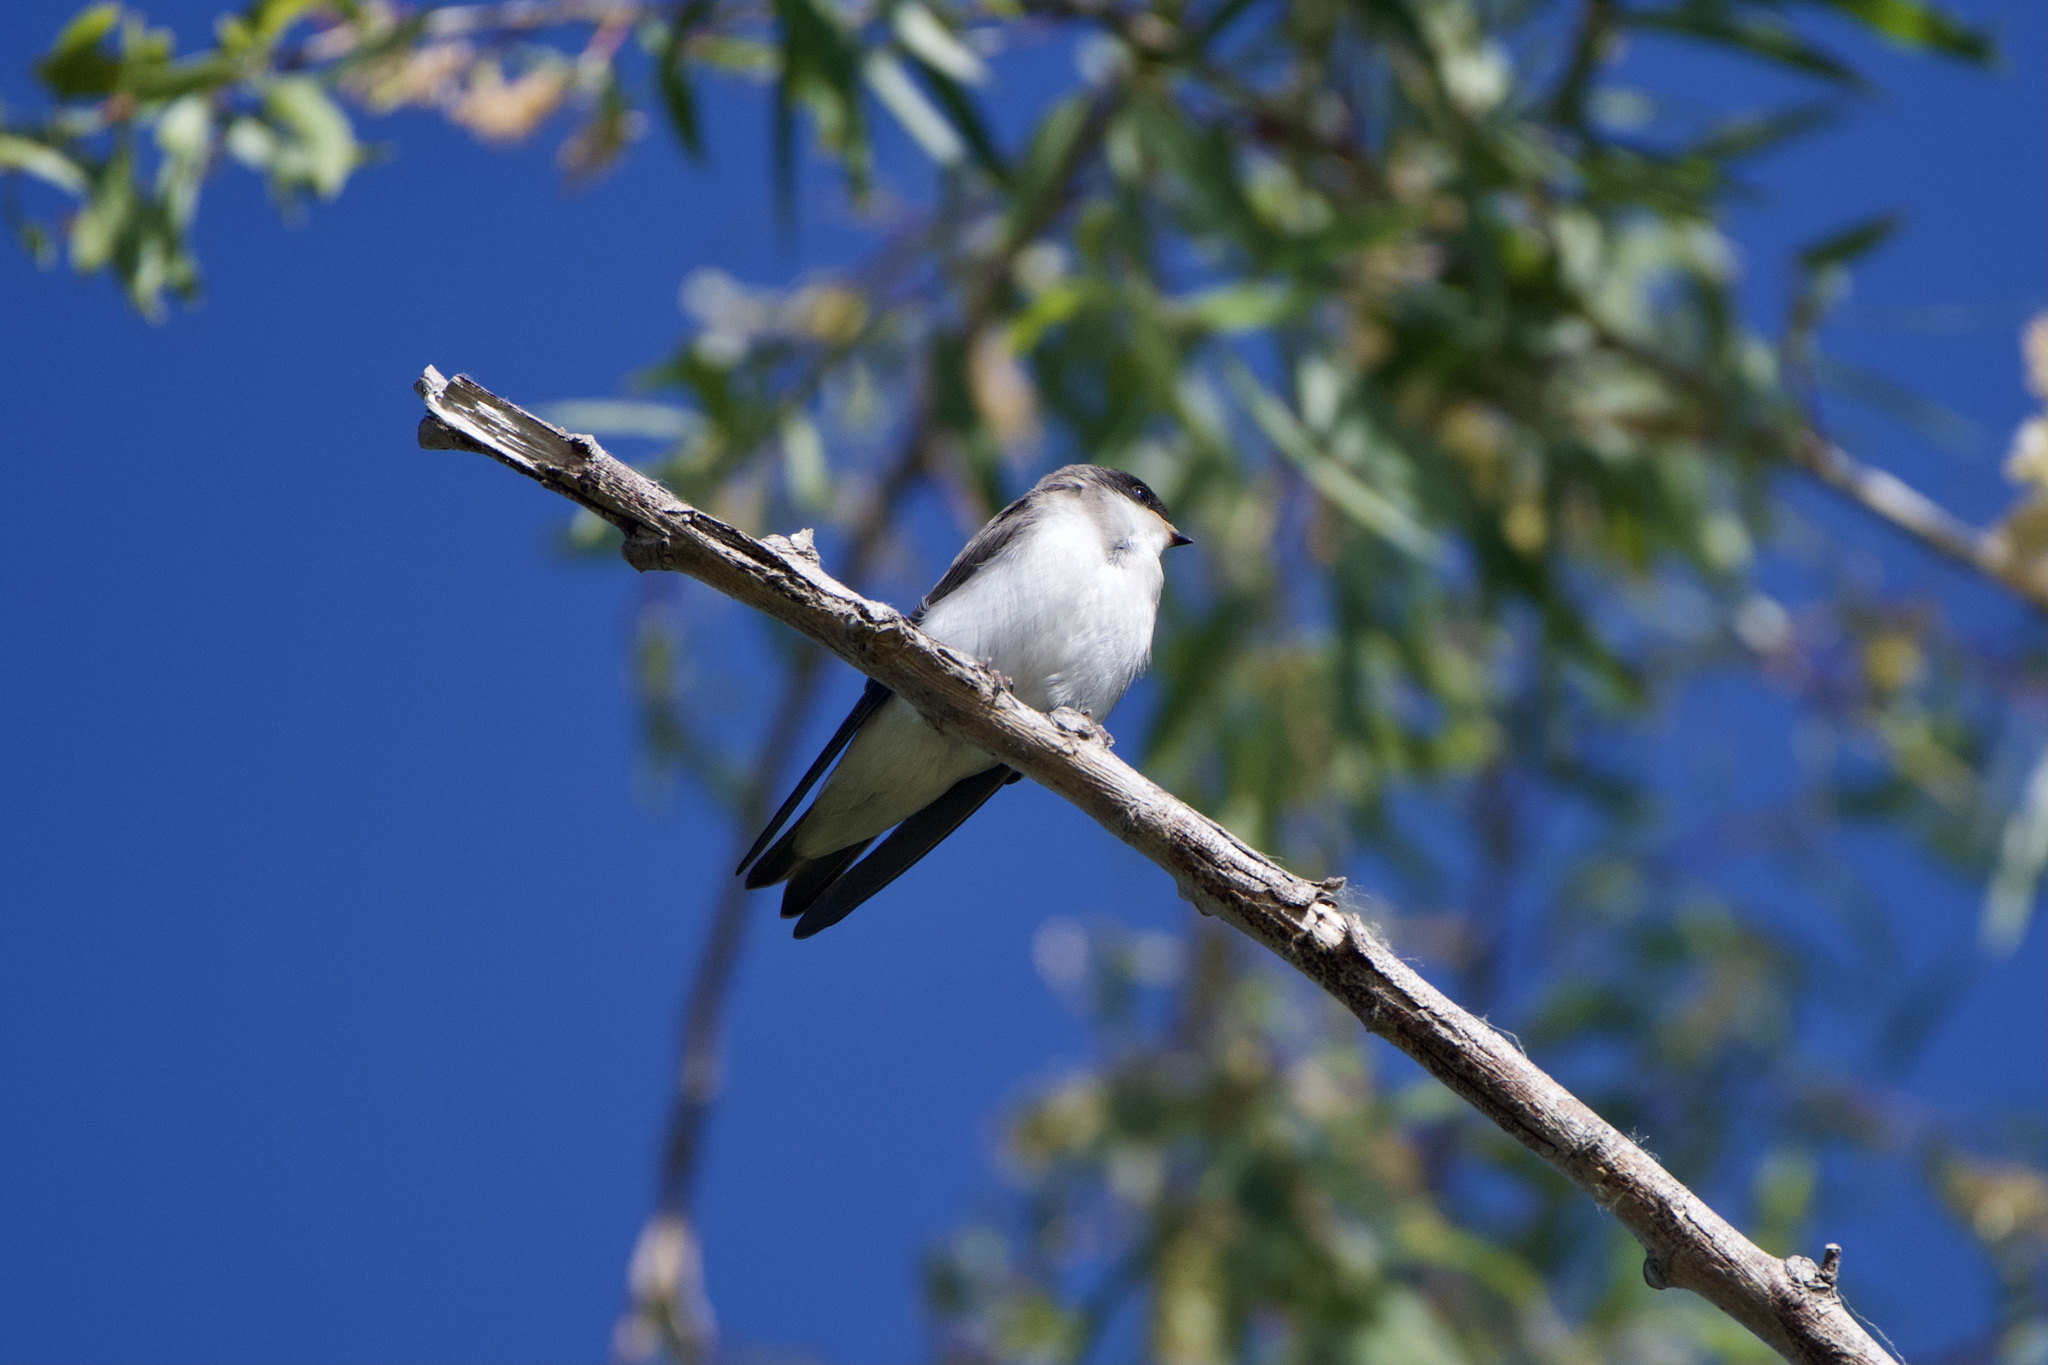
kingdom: Animalia
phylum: Chordata
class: Aves
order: Passeriformes
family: Hirundinidae
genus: Tachycineta
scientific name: Tachycineta bicolor
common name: Tree swallow
